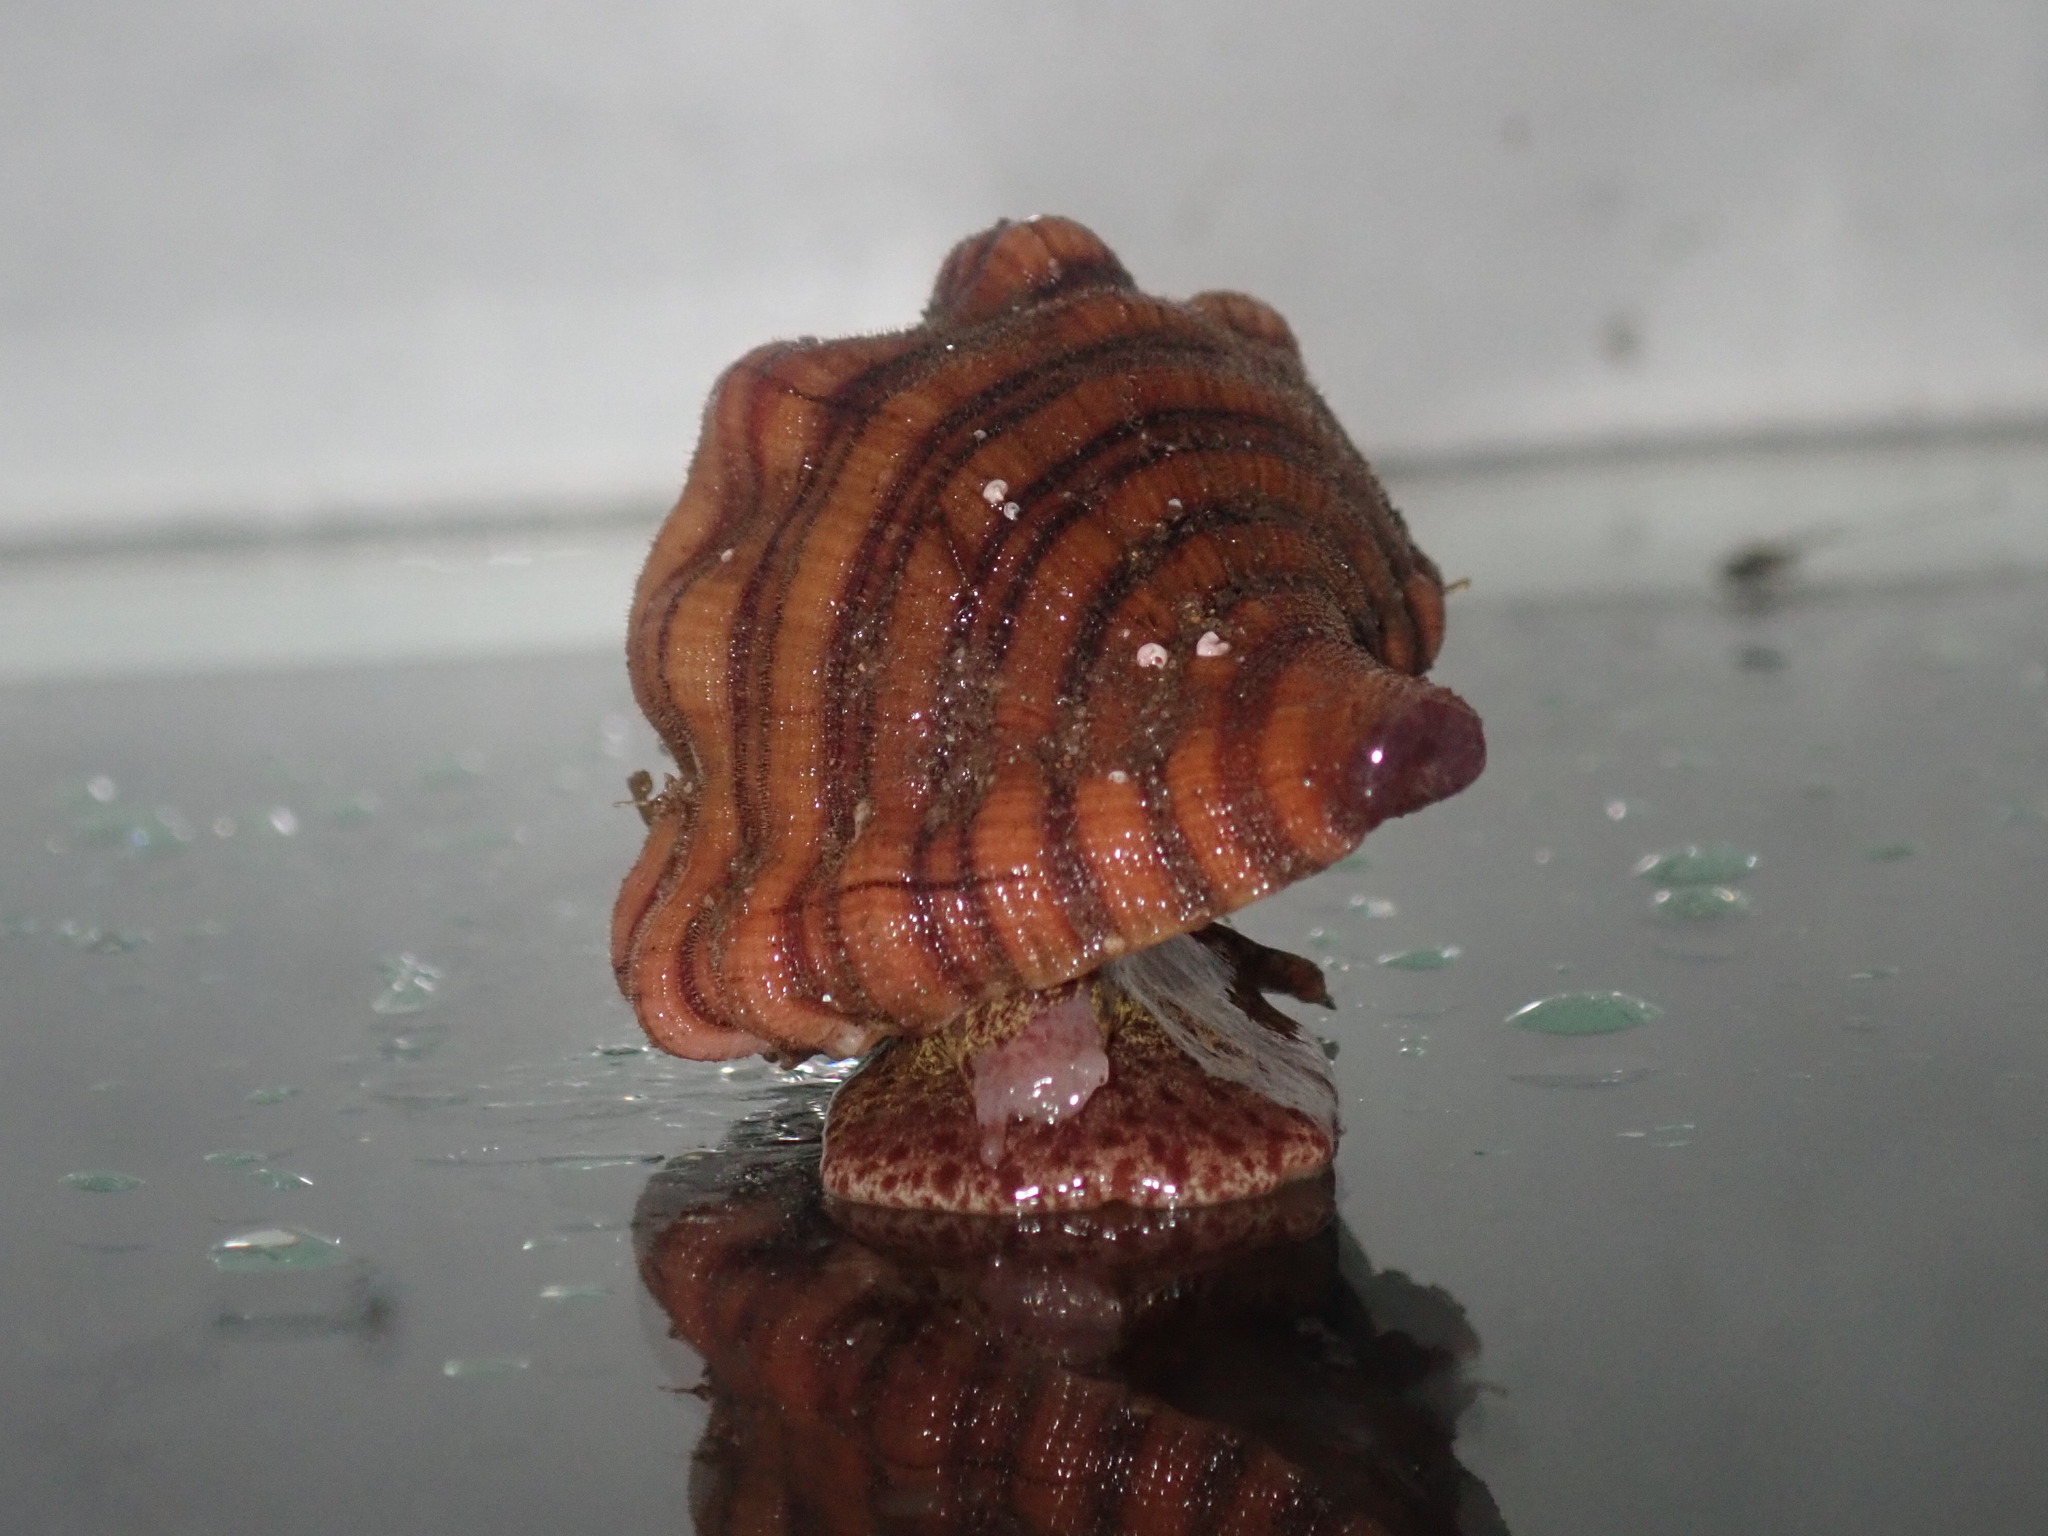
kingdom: Animalia
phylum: Mollusca
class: Gastropoda
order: Littorinimorpha
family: Cymatiidae
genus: Cabestana
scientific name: Cabestana spengleri
